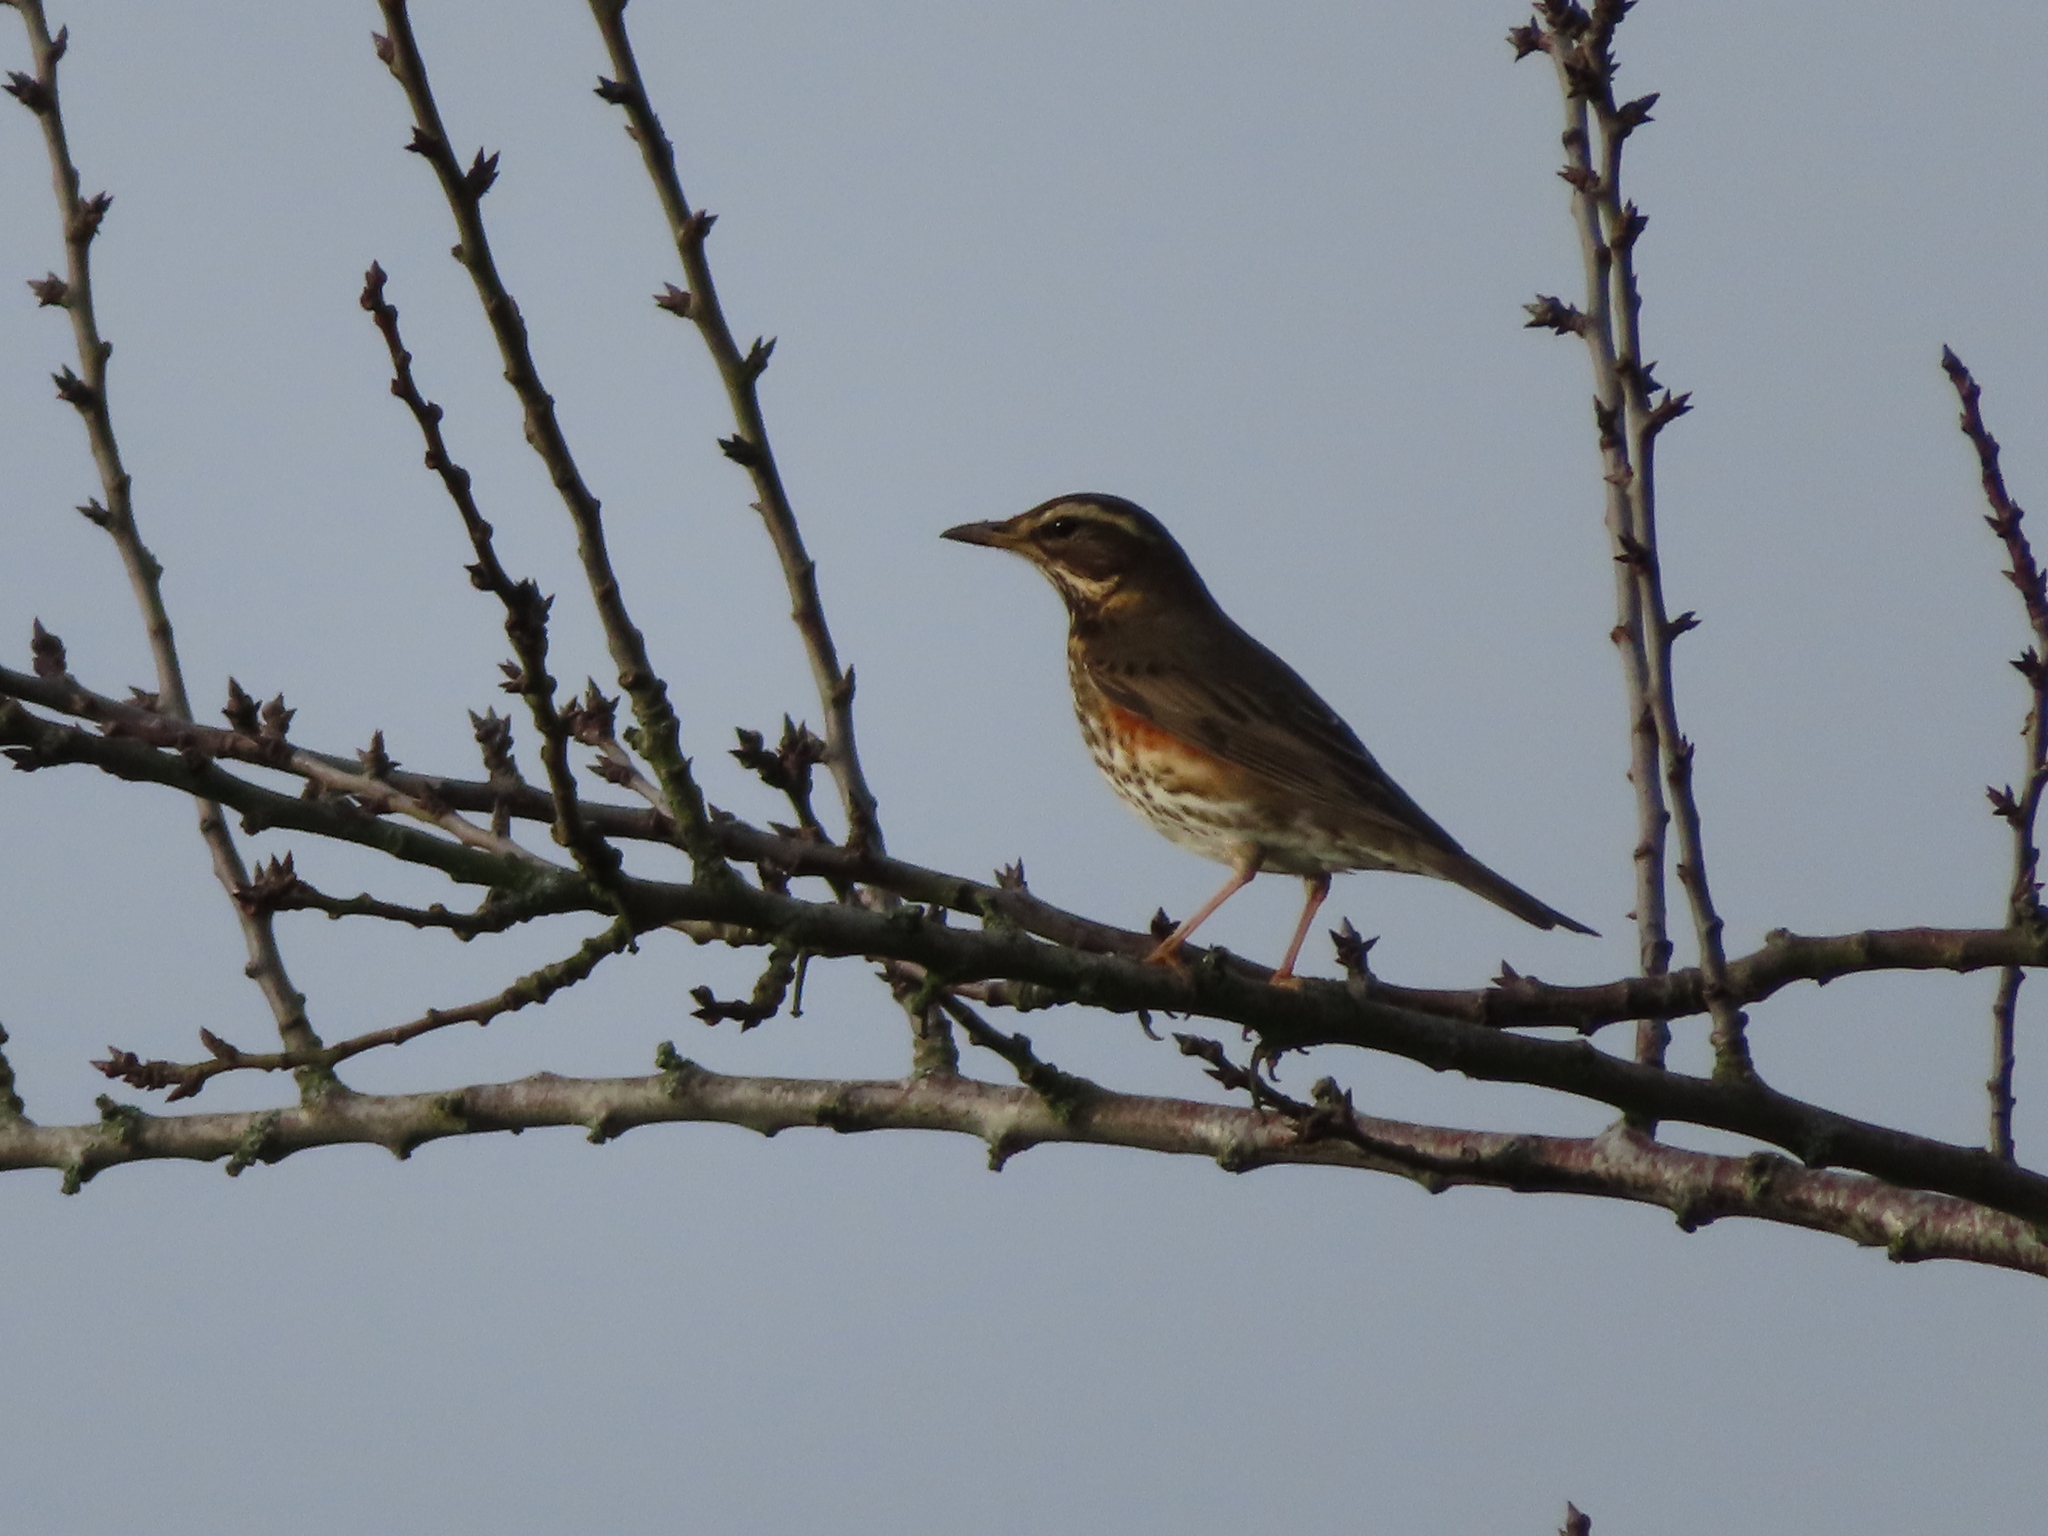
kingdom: Animalia
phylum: Chordata
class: Aves
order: Passeriformes
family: Turdidae
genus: Turdus
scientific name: Turdus iliacus
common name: Redwing
